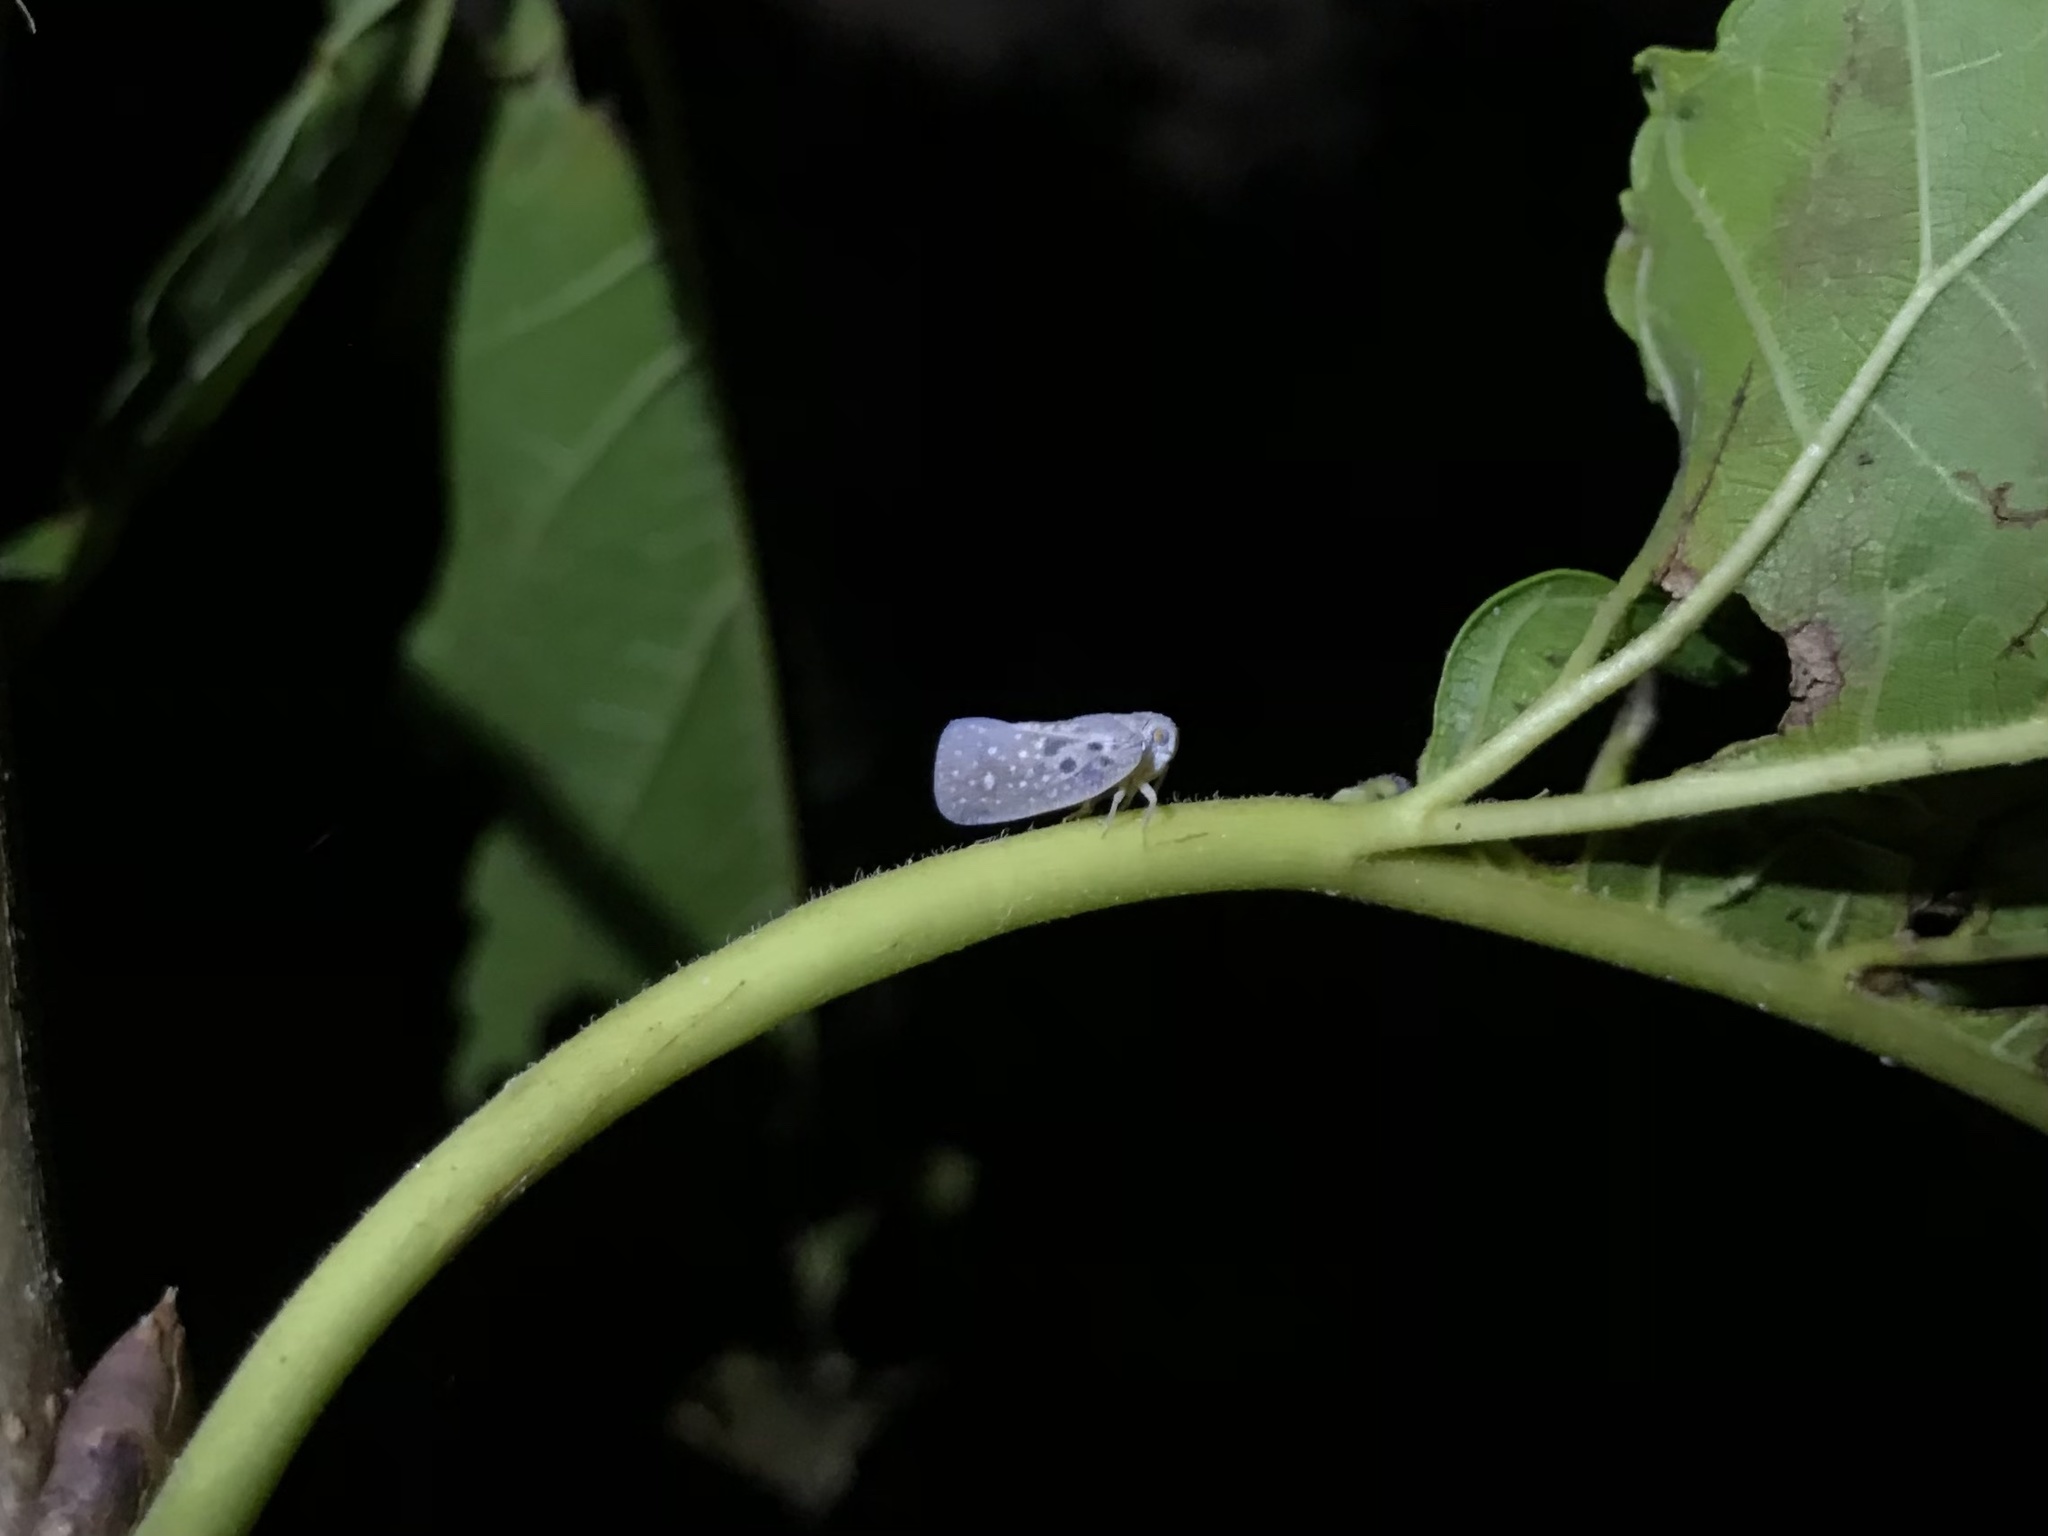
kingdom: Animalia
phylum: Arthropoda
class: Insecta
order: Hemiptera
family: Flatidae
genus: Metcalfa
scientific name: Metcalfa pruinosa
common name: Citrus flatid planthopper
